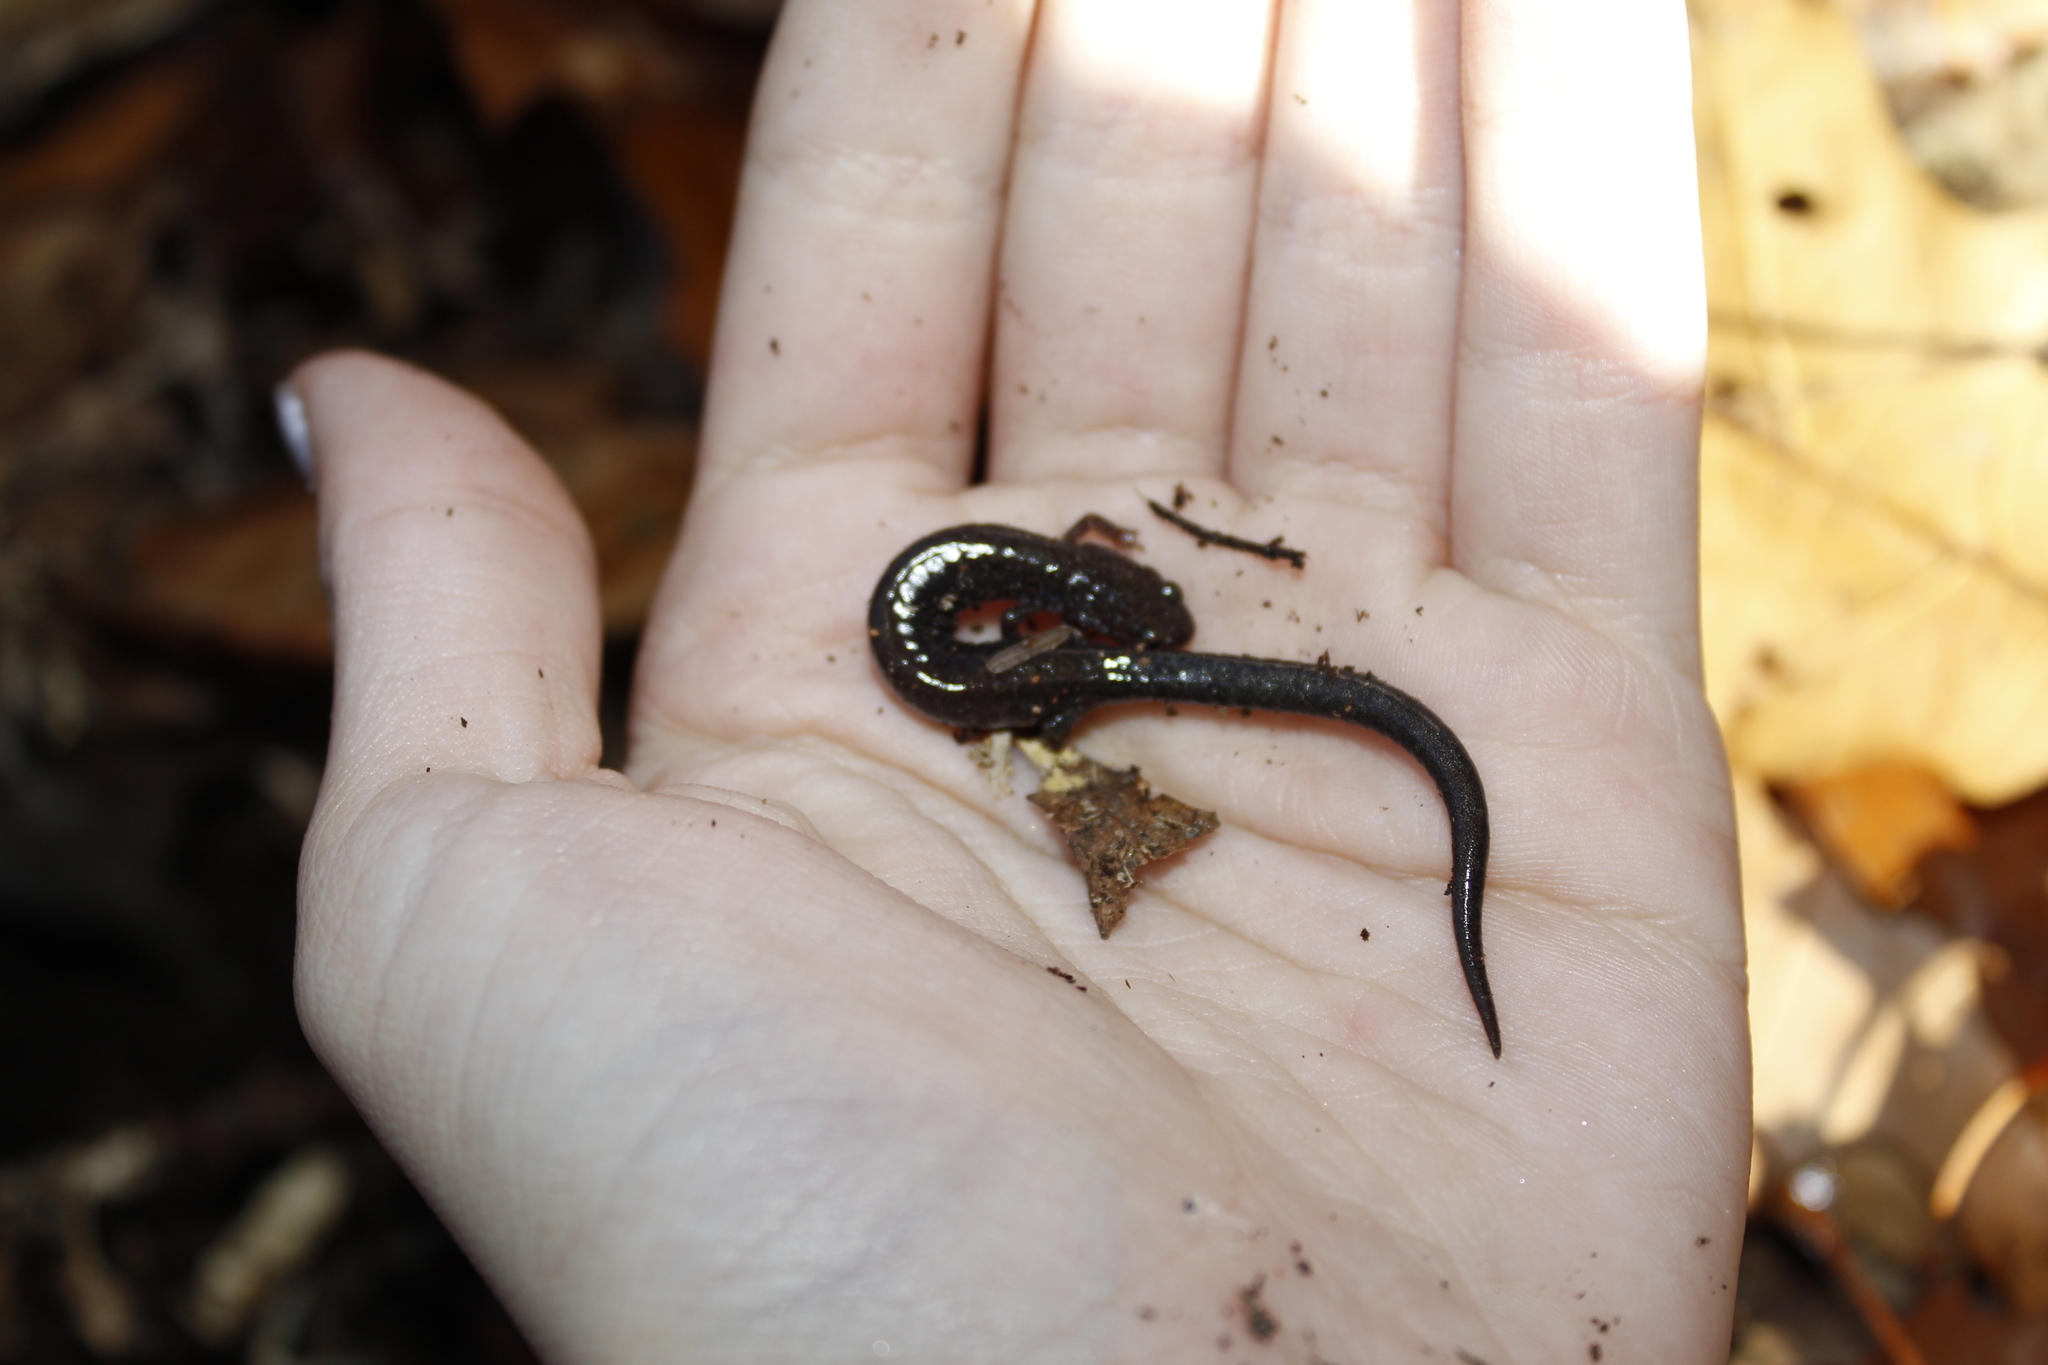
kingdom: Animalia
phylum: Chordata
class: Amphibia
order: Caudata
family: Plethodontidae
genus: Plethodon
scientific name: Plethodon cinereus
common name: Redback salamander
